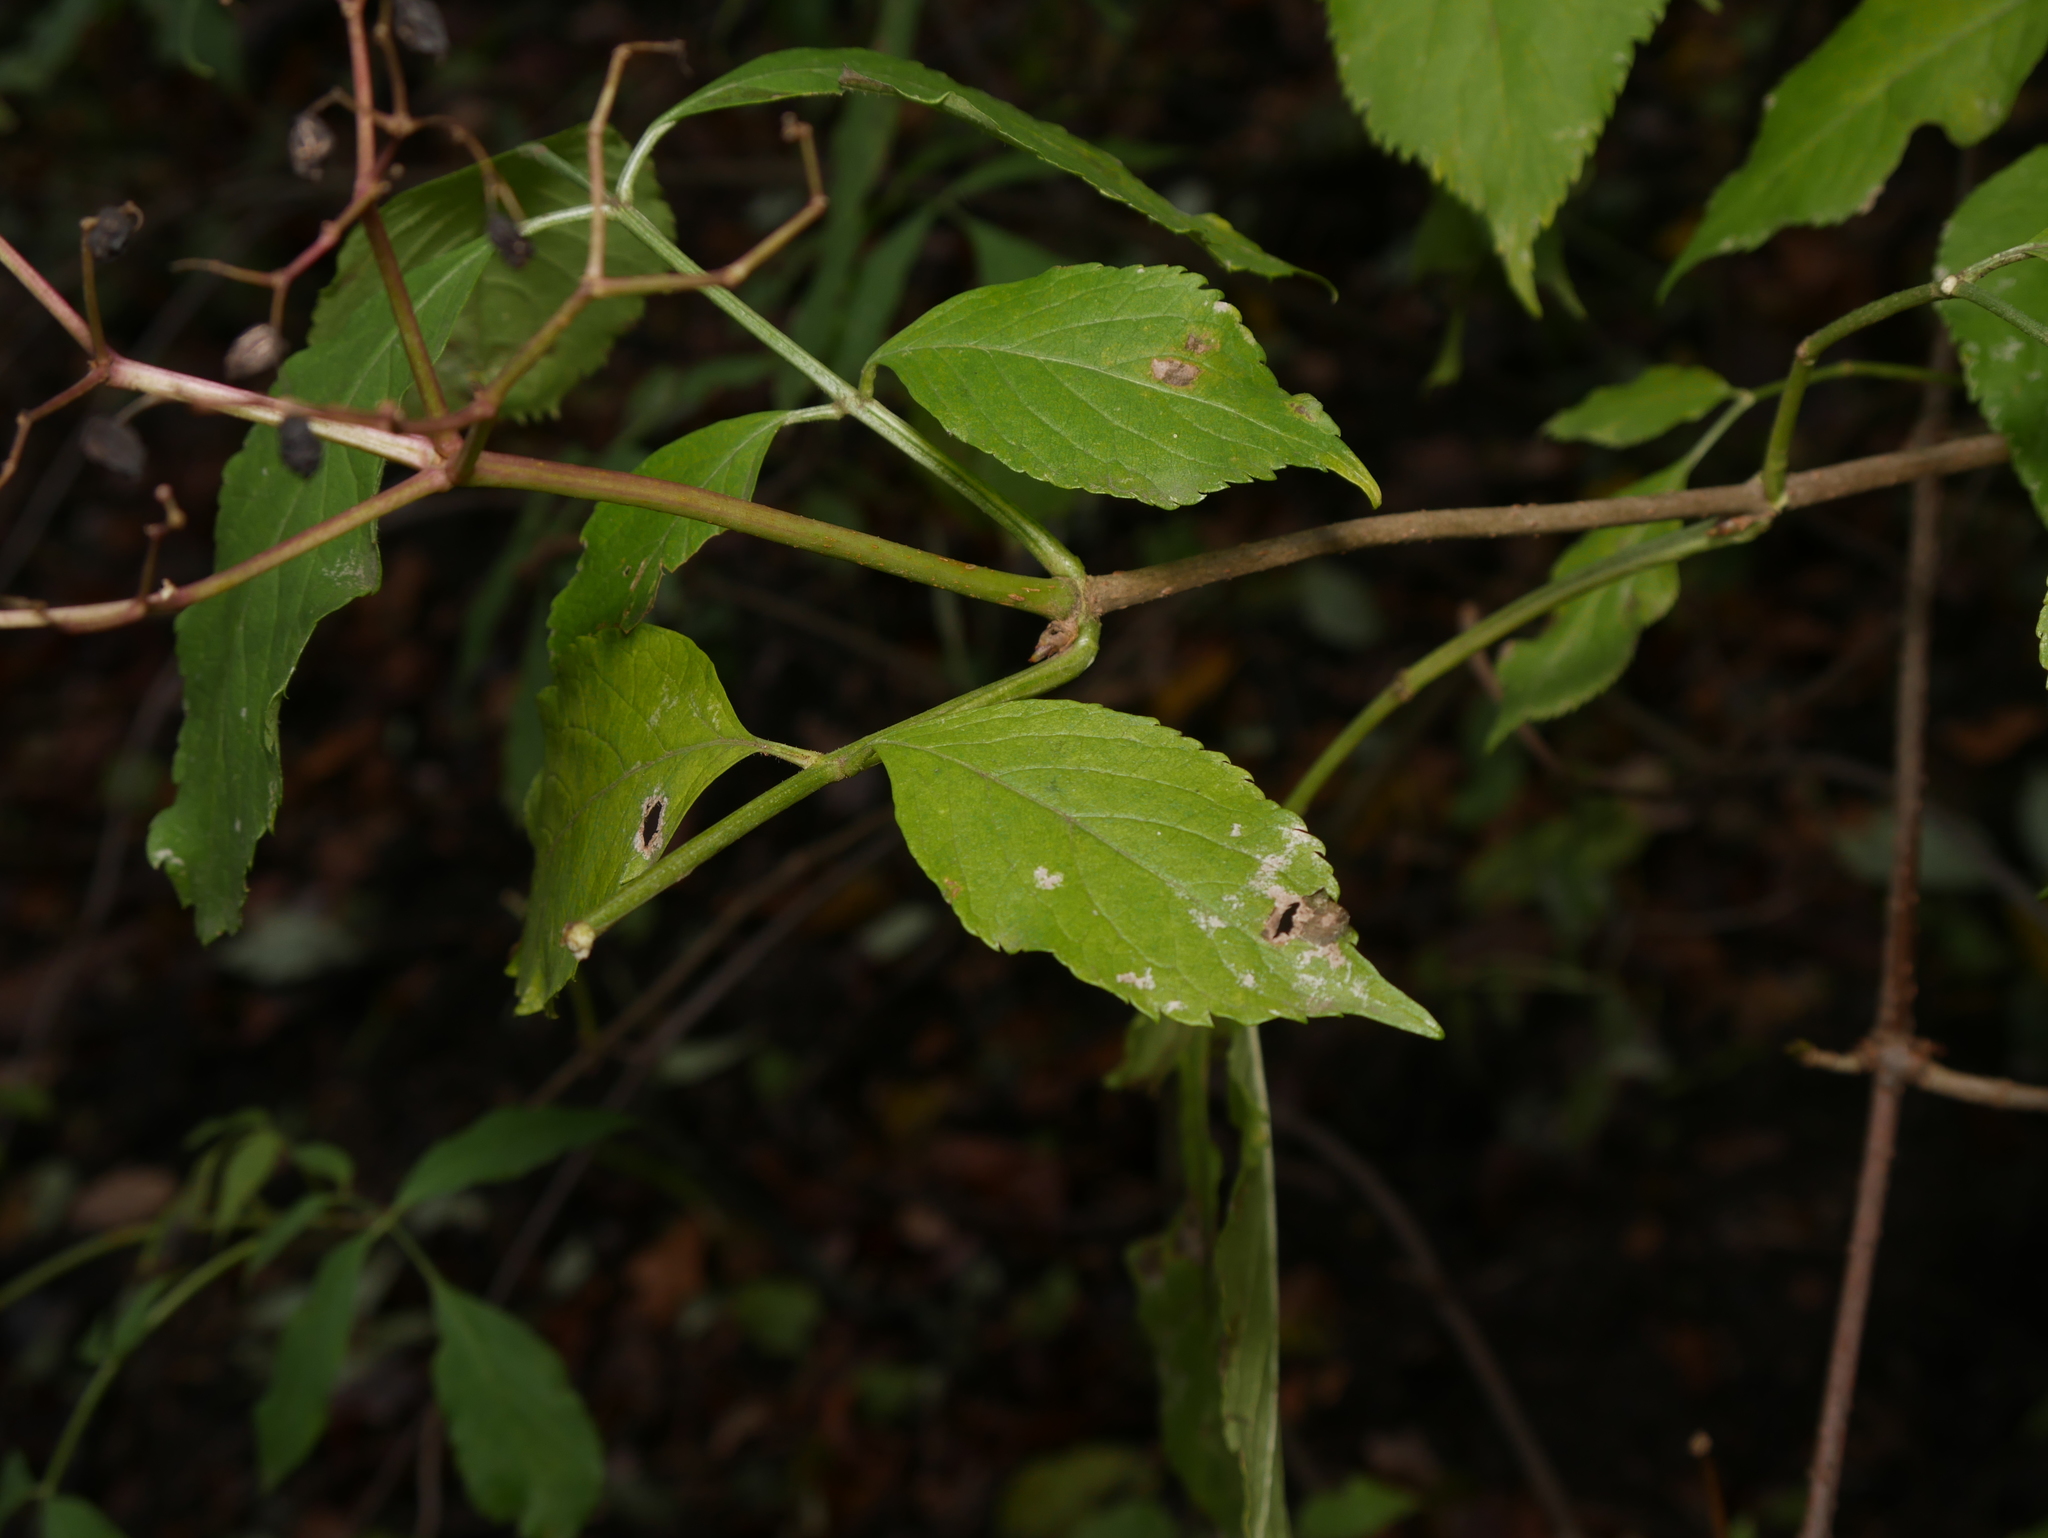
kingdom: Plantae
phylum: Tracheophyta
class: Magnoliopsida
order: Dipsacales
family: Viburnaceae
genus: Sambucus
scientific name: Sambucus nigra
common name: Elder
